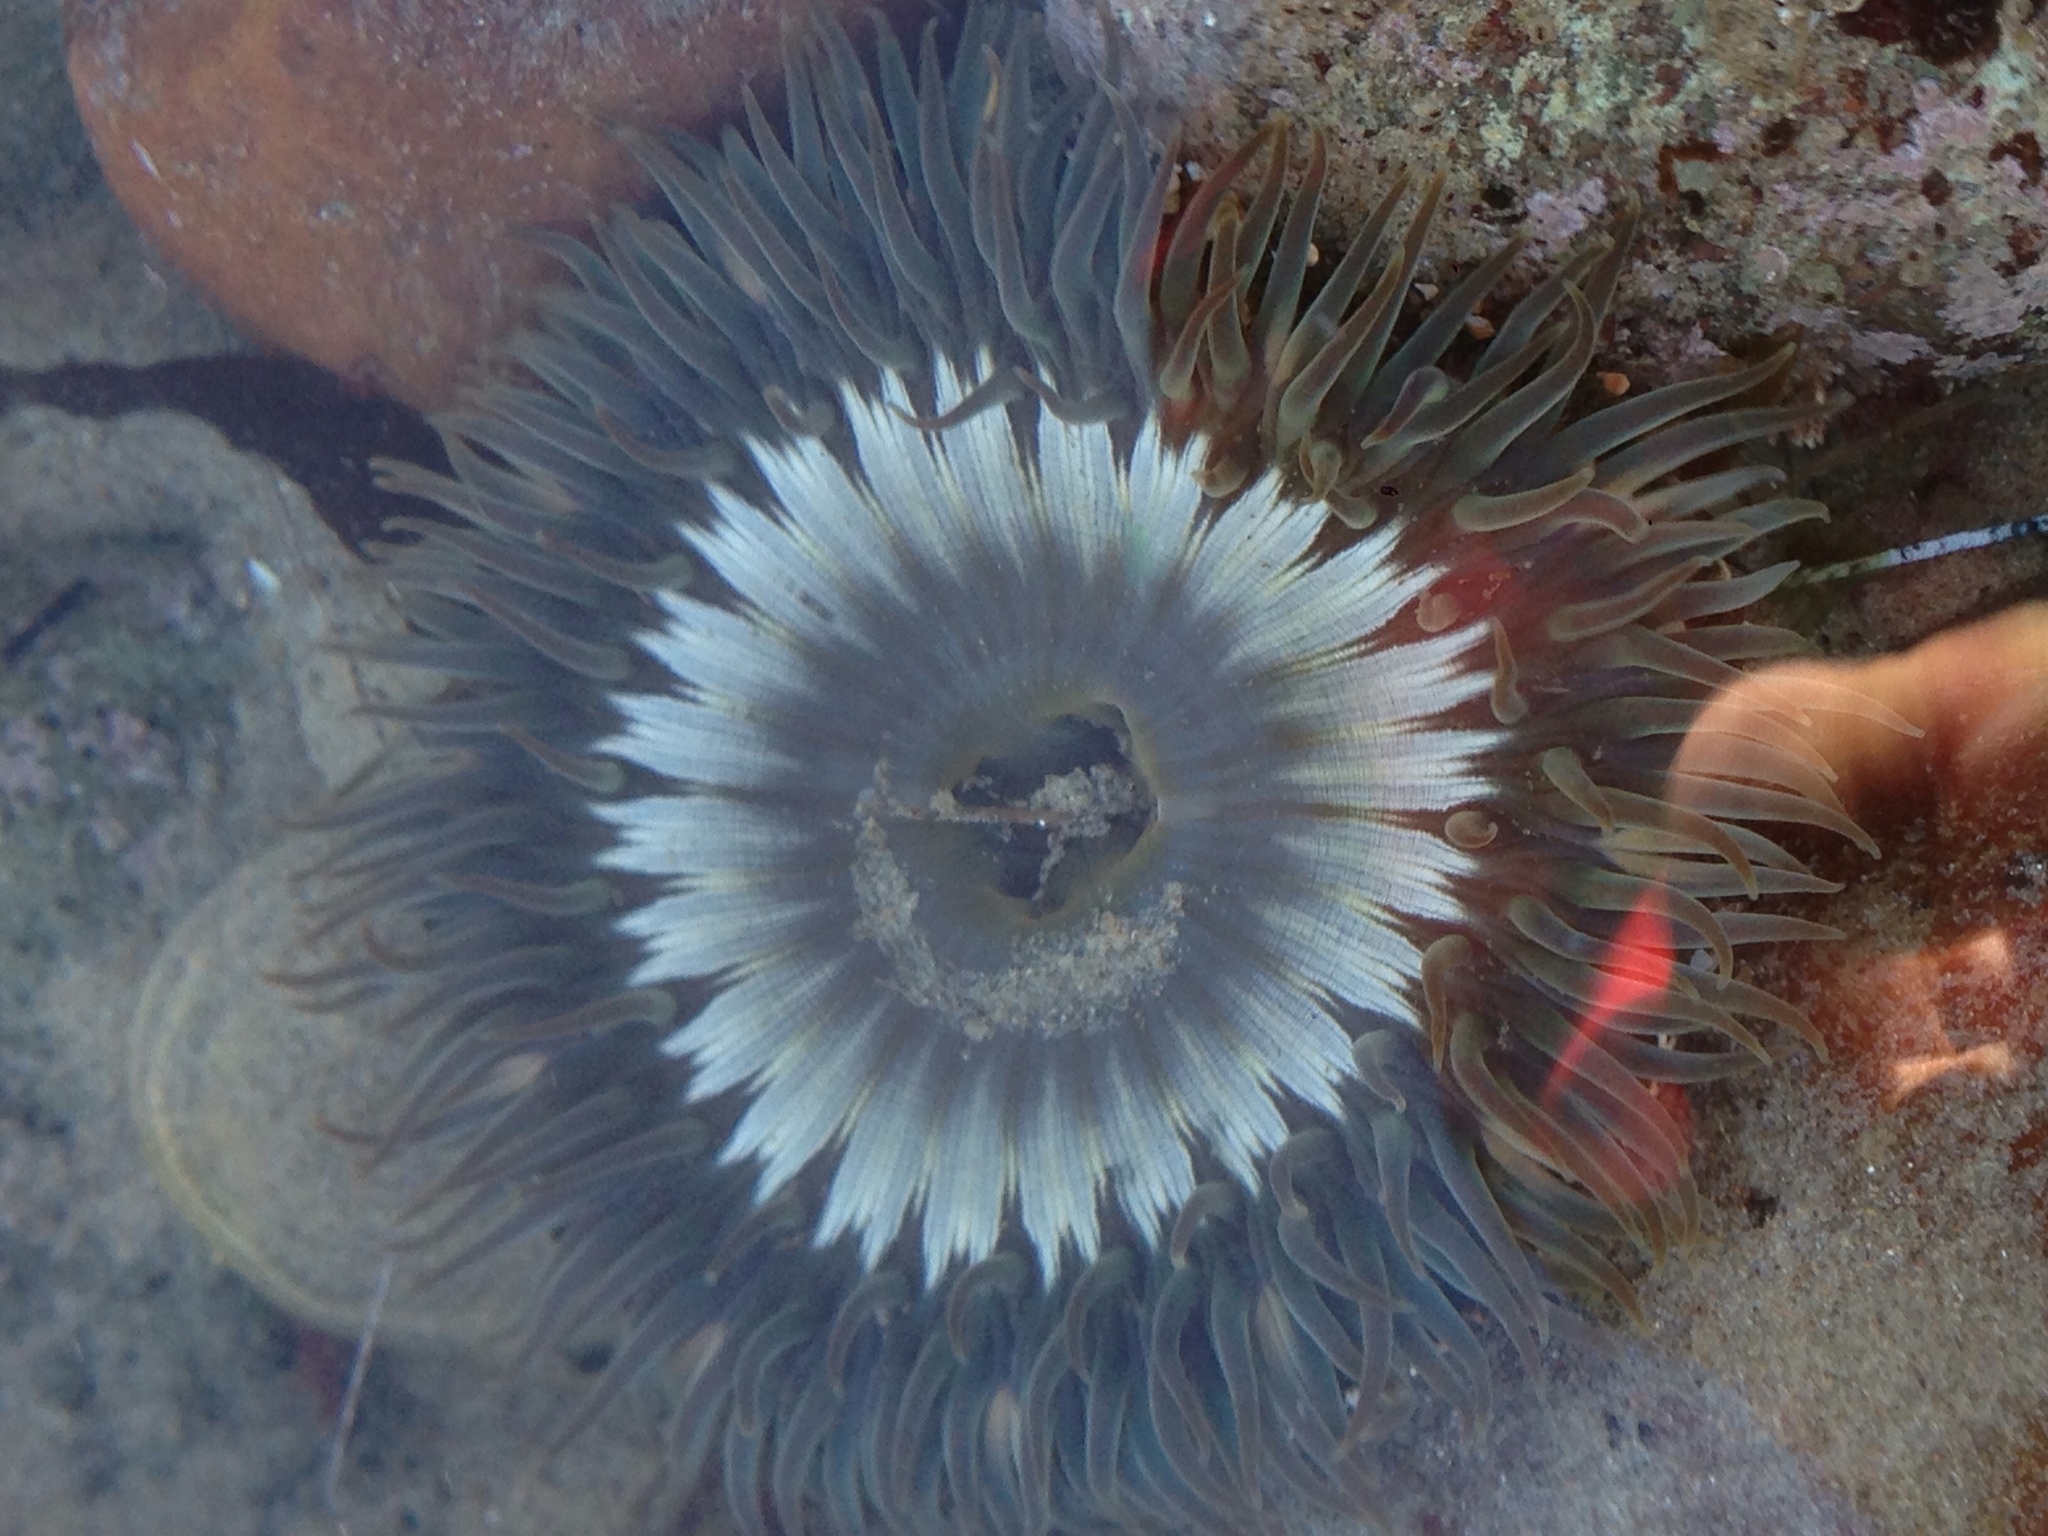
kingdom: Animalia
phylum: Cnidaria
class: Anthozoa
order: Actiniaria
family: Actiniidae
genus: Anthopleura
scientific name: Anthopleura sola
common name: Sun anemone
